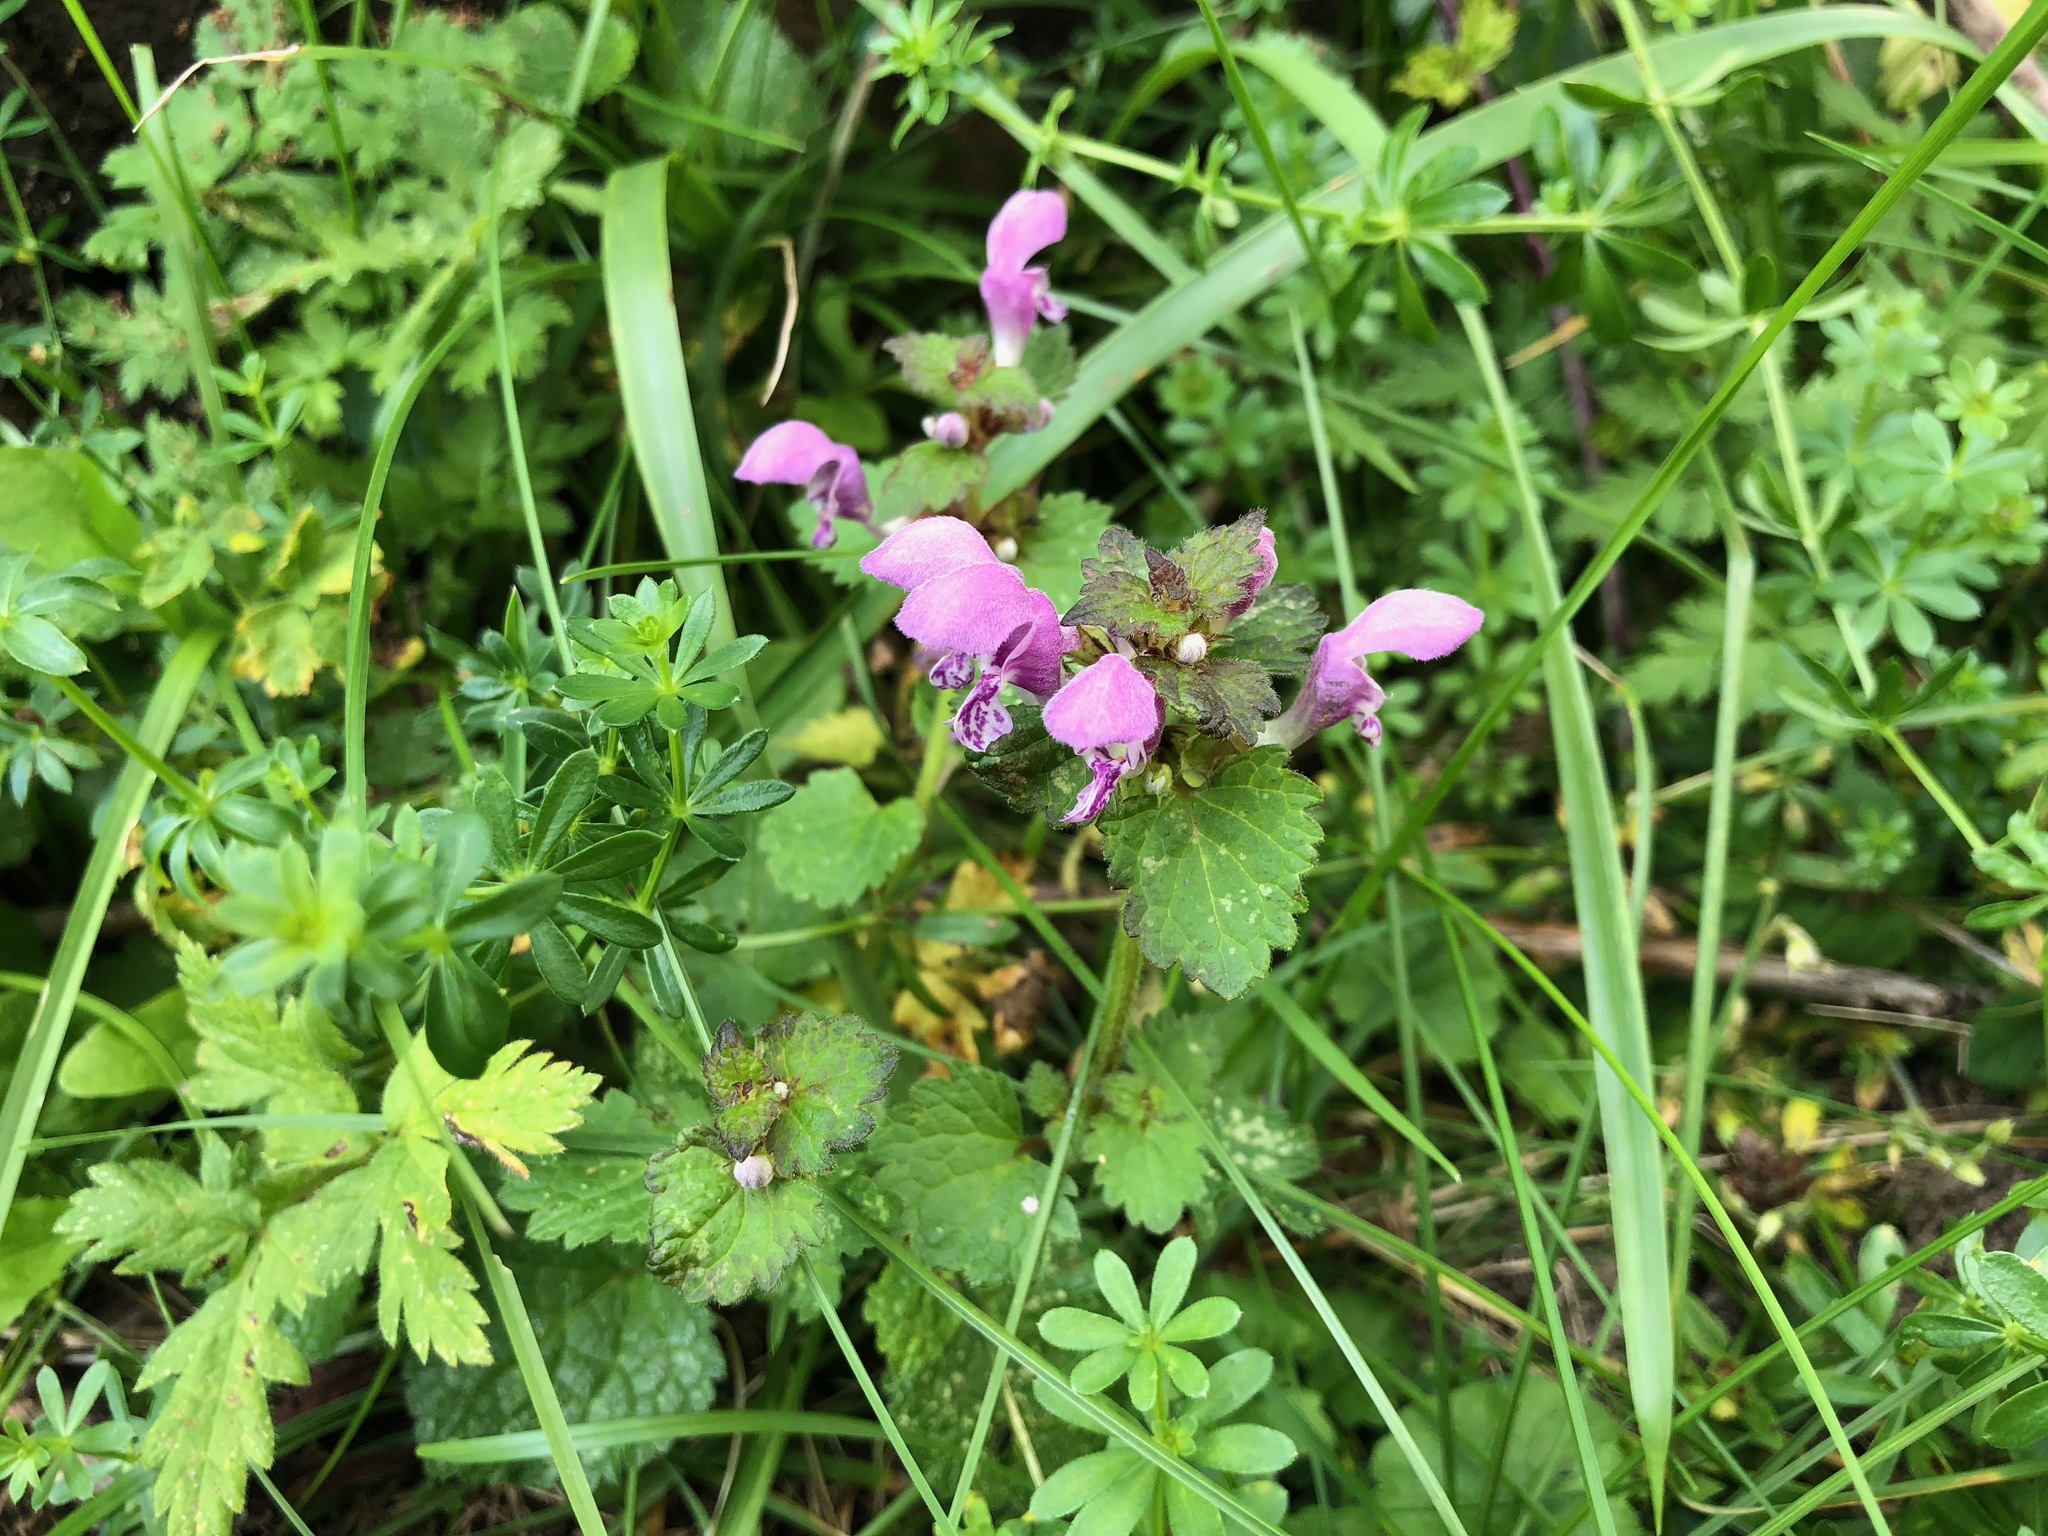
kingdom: Plantae
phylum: Tracheophyta
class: Magnoliopsida
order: Lamiales
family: Lamiaceae
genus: Lamium
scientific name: Lamium maculatum
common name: Spotted dead-nettle
